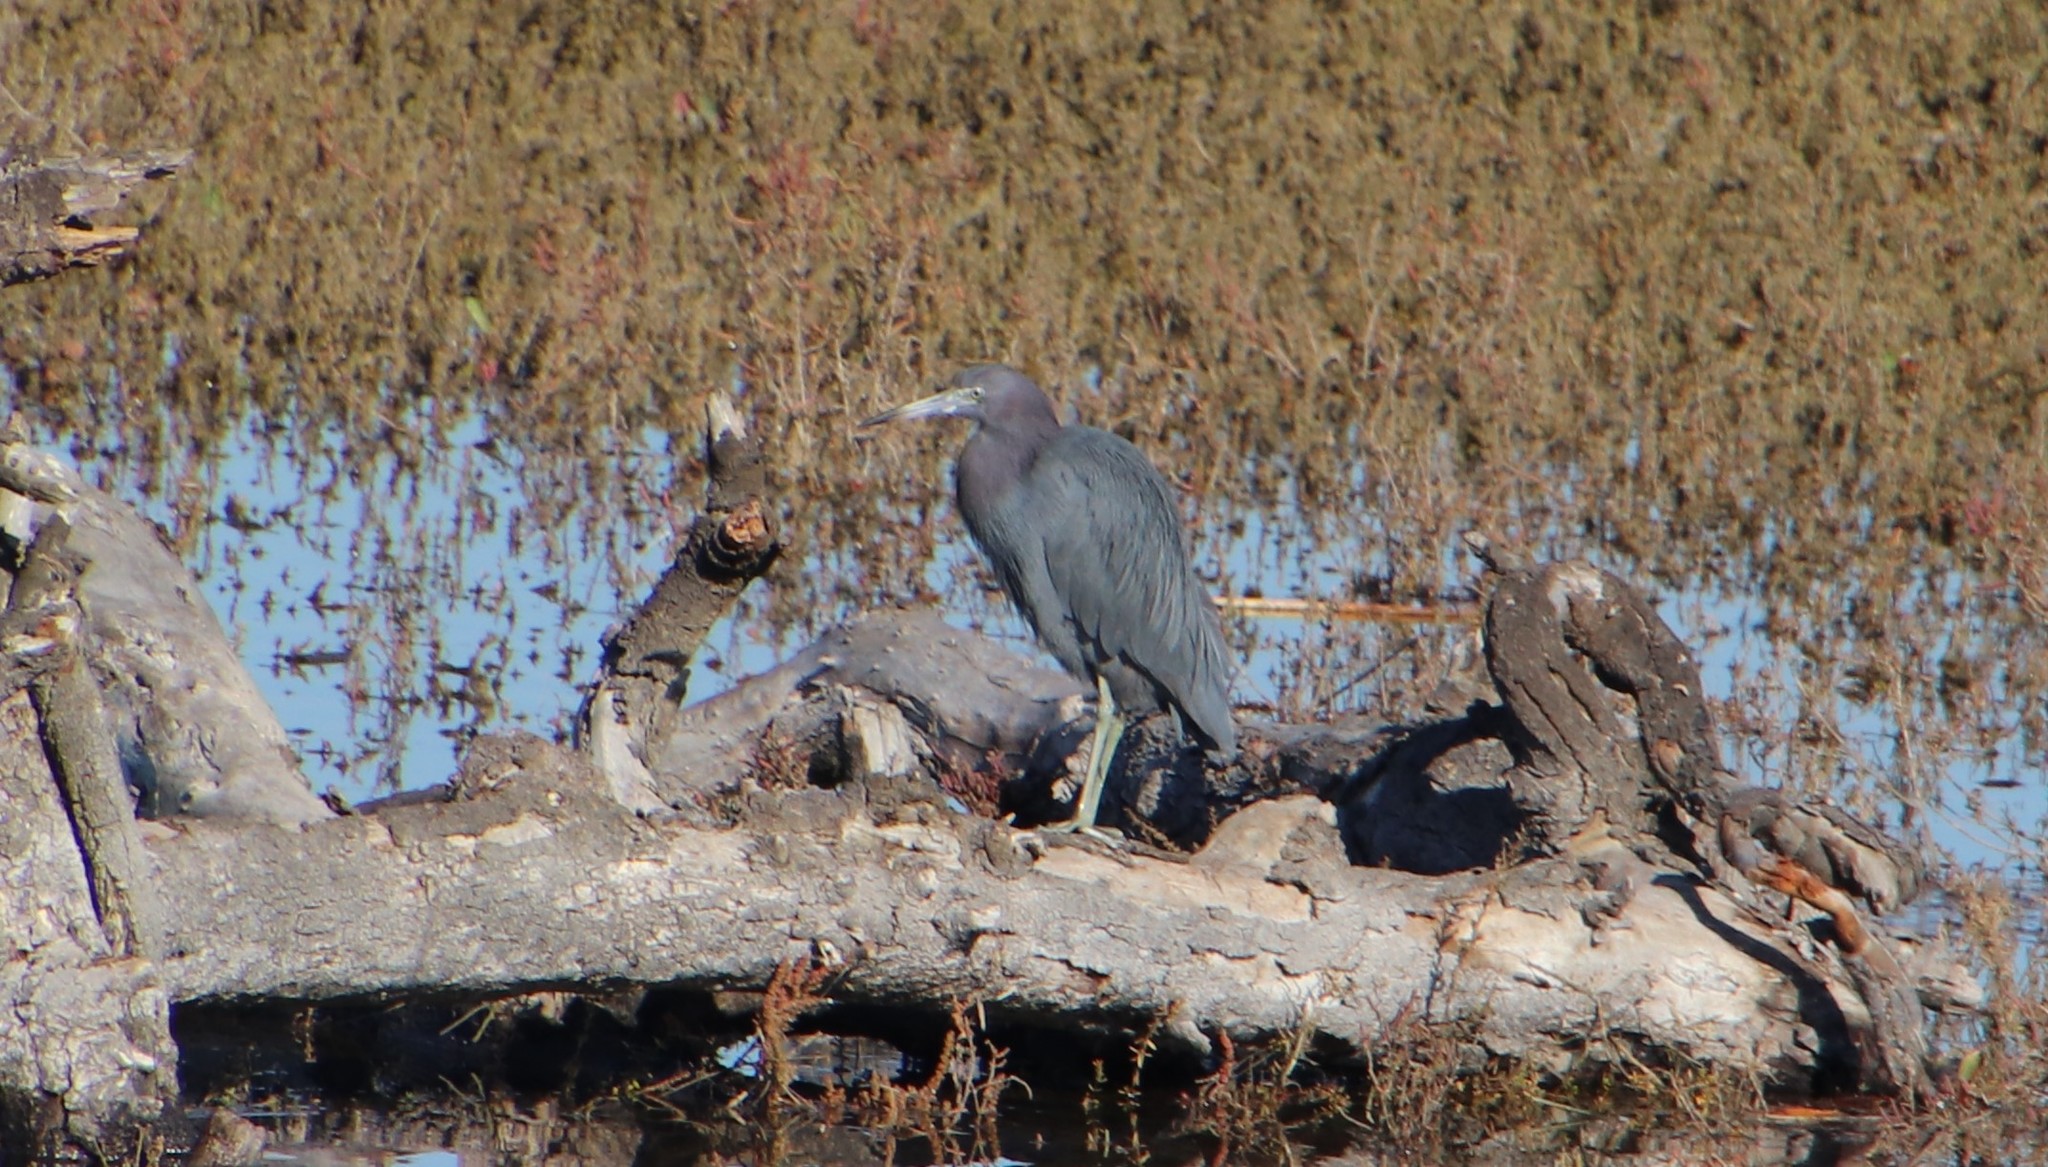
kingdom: Animalia
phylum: Chordata
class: Aves
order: Pelecaniformes
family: Ardeidae
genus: Egretta
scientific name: Egretta caerulea
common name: Little blue heron
